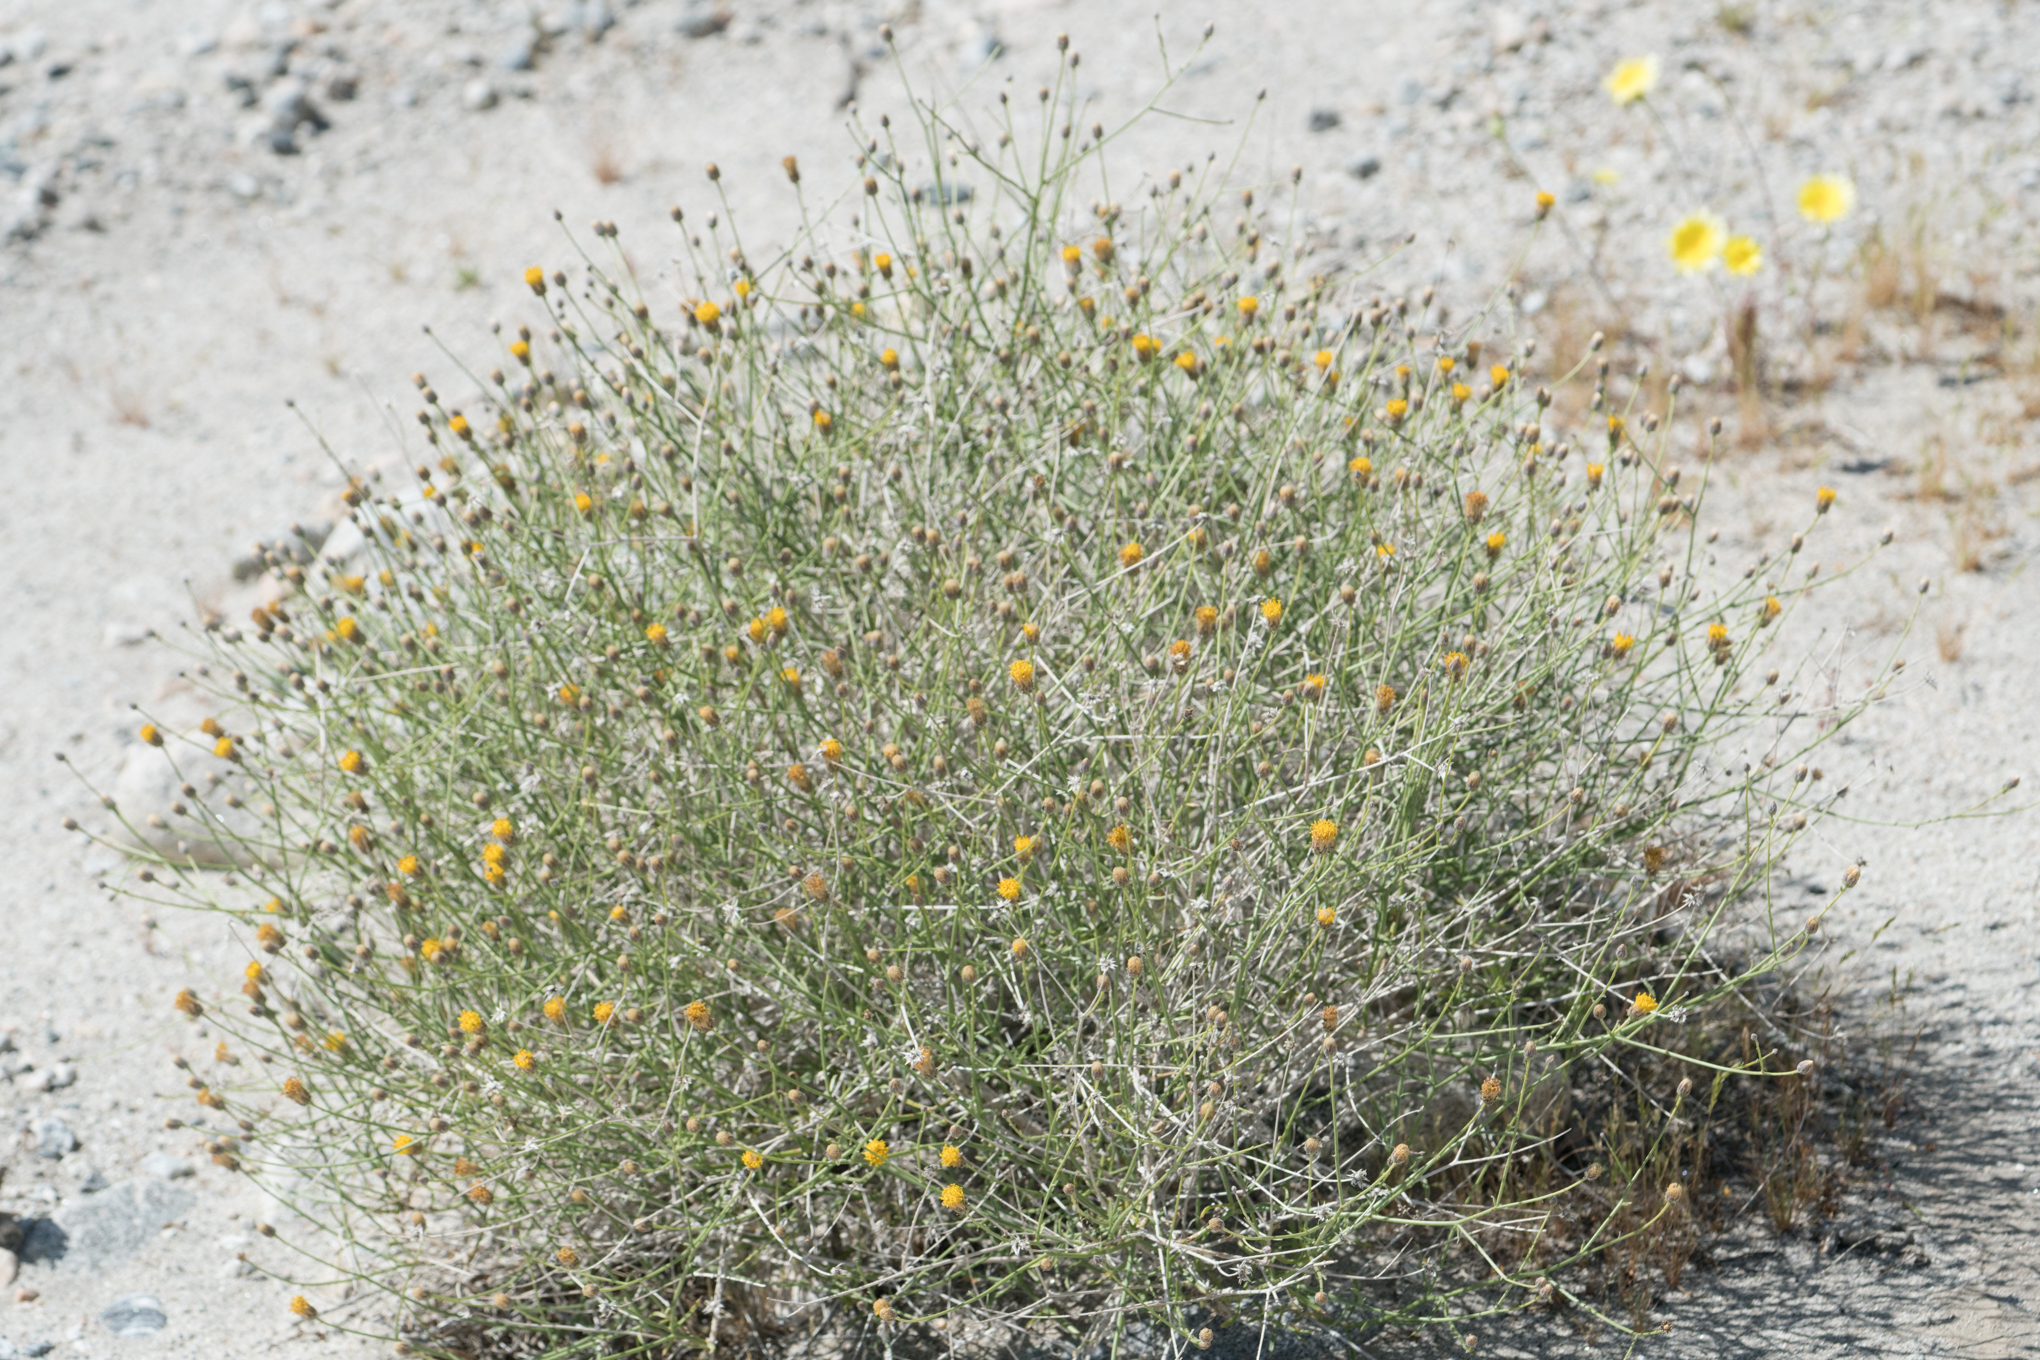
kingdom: Plantae
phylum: Tracheophyta
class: Magnoliopsida
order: Asterales
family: Asteraceae
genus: Bebbia
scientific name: Bebbia juncea
